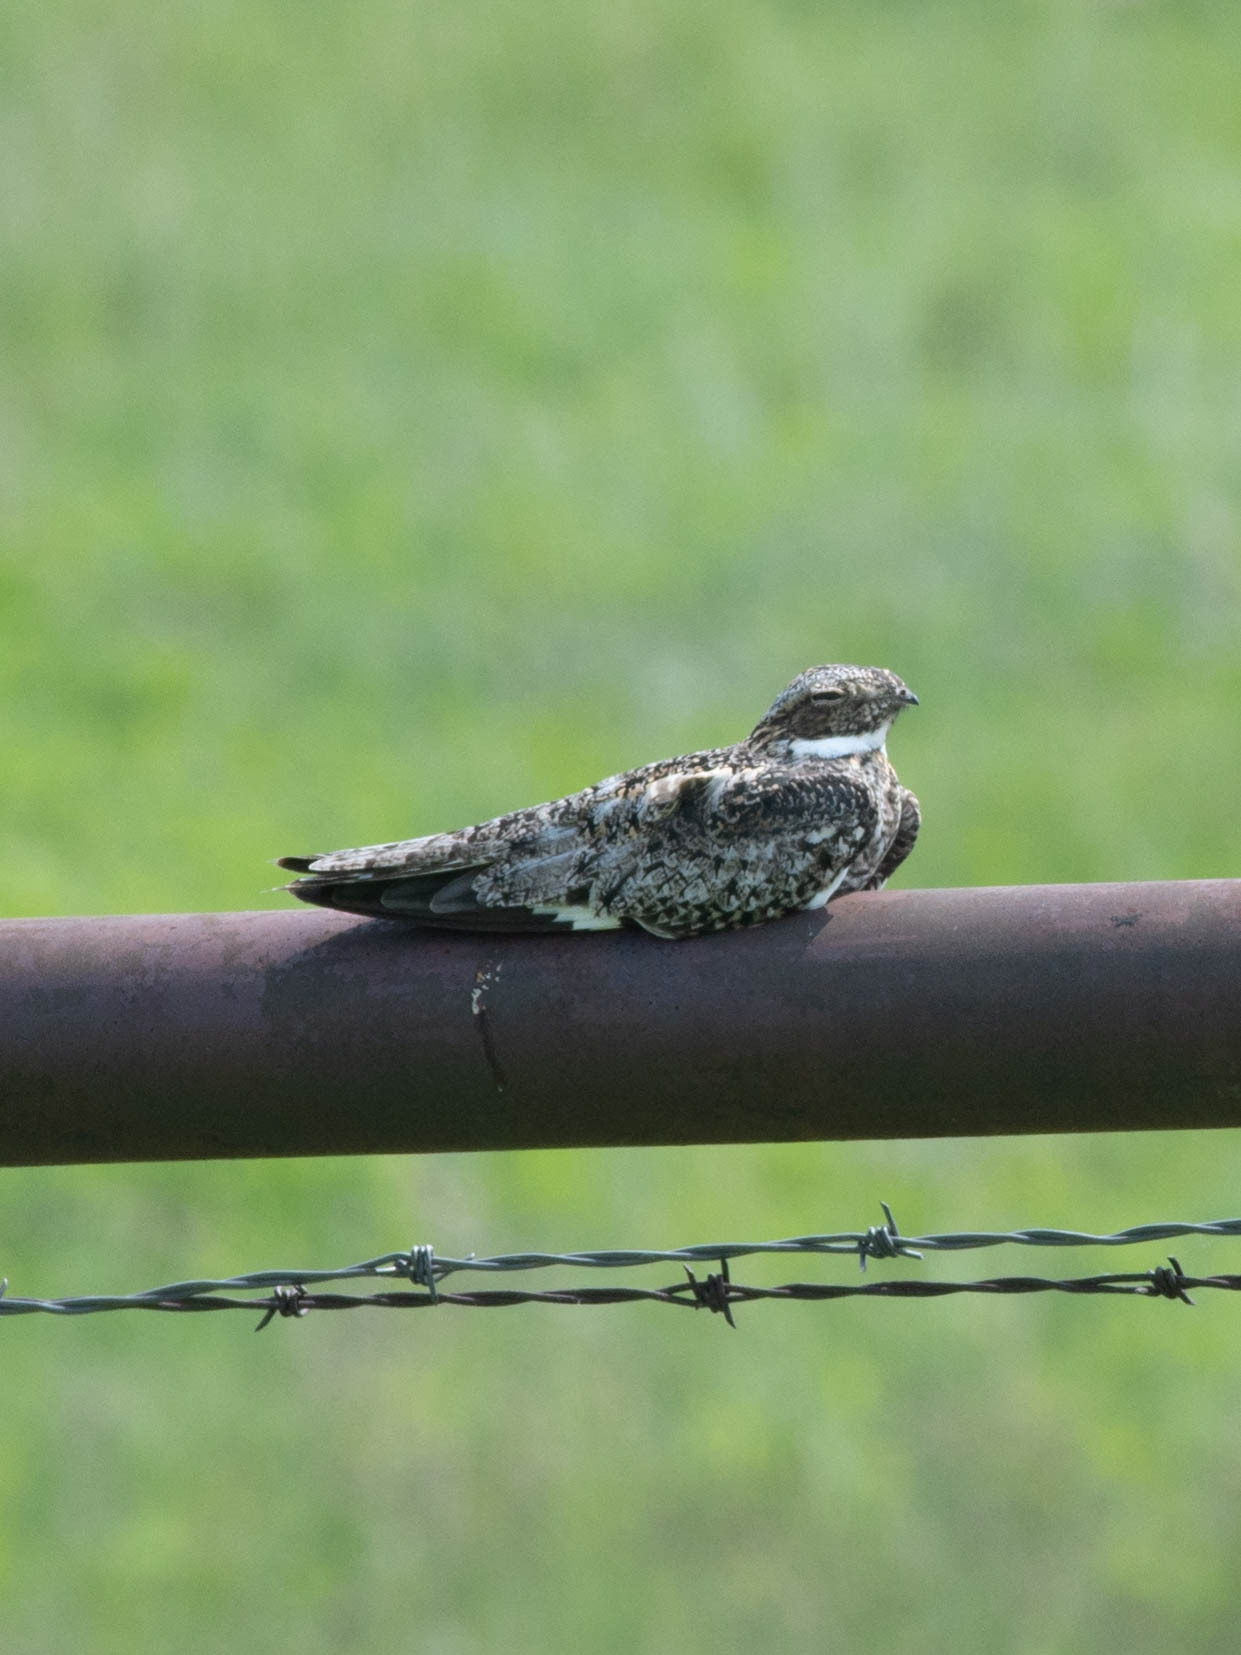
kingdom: Animalia
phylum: Chordata
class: Aves
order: Caprimulgiformes
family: Caprimulgidae
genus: Chordeiles
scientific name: Chordeiles minor
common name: Common nighthawk
